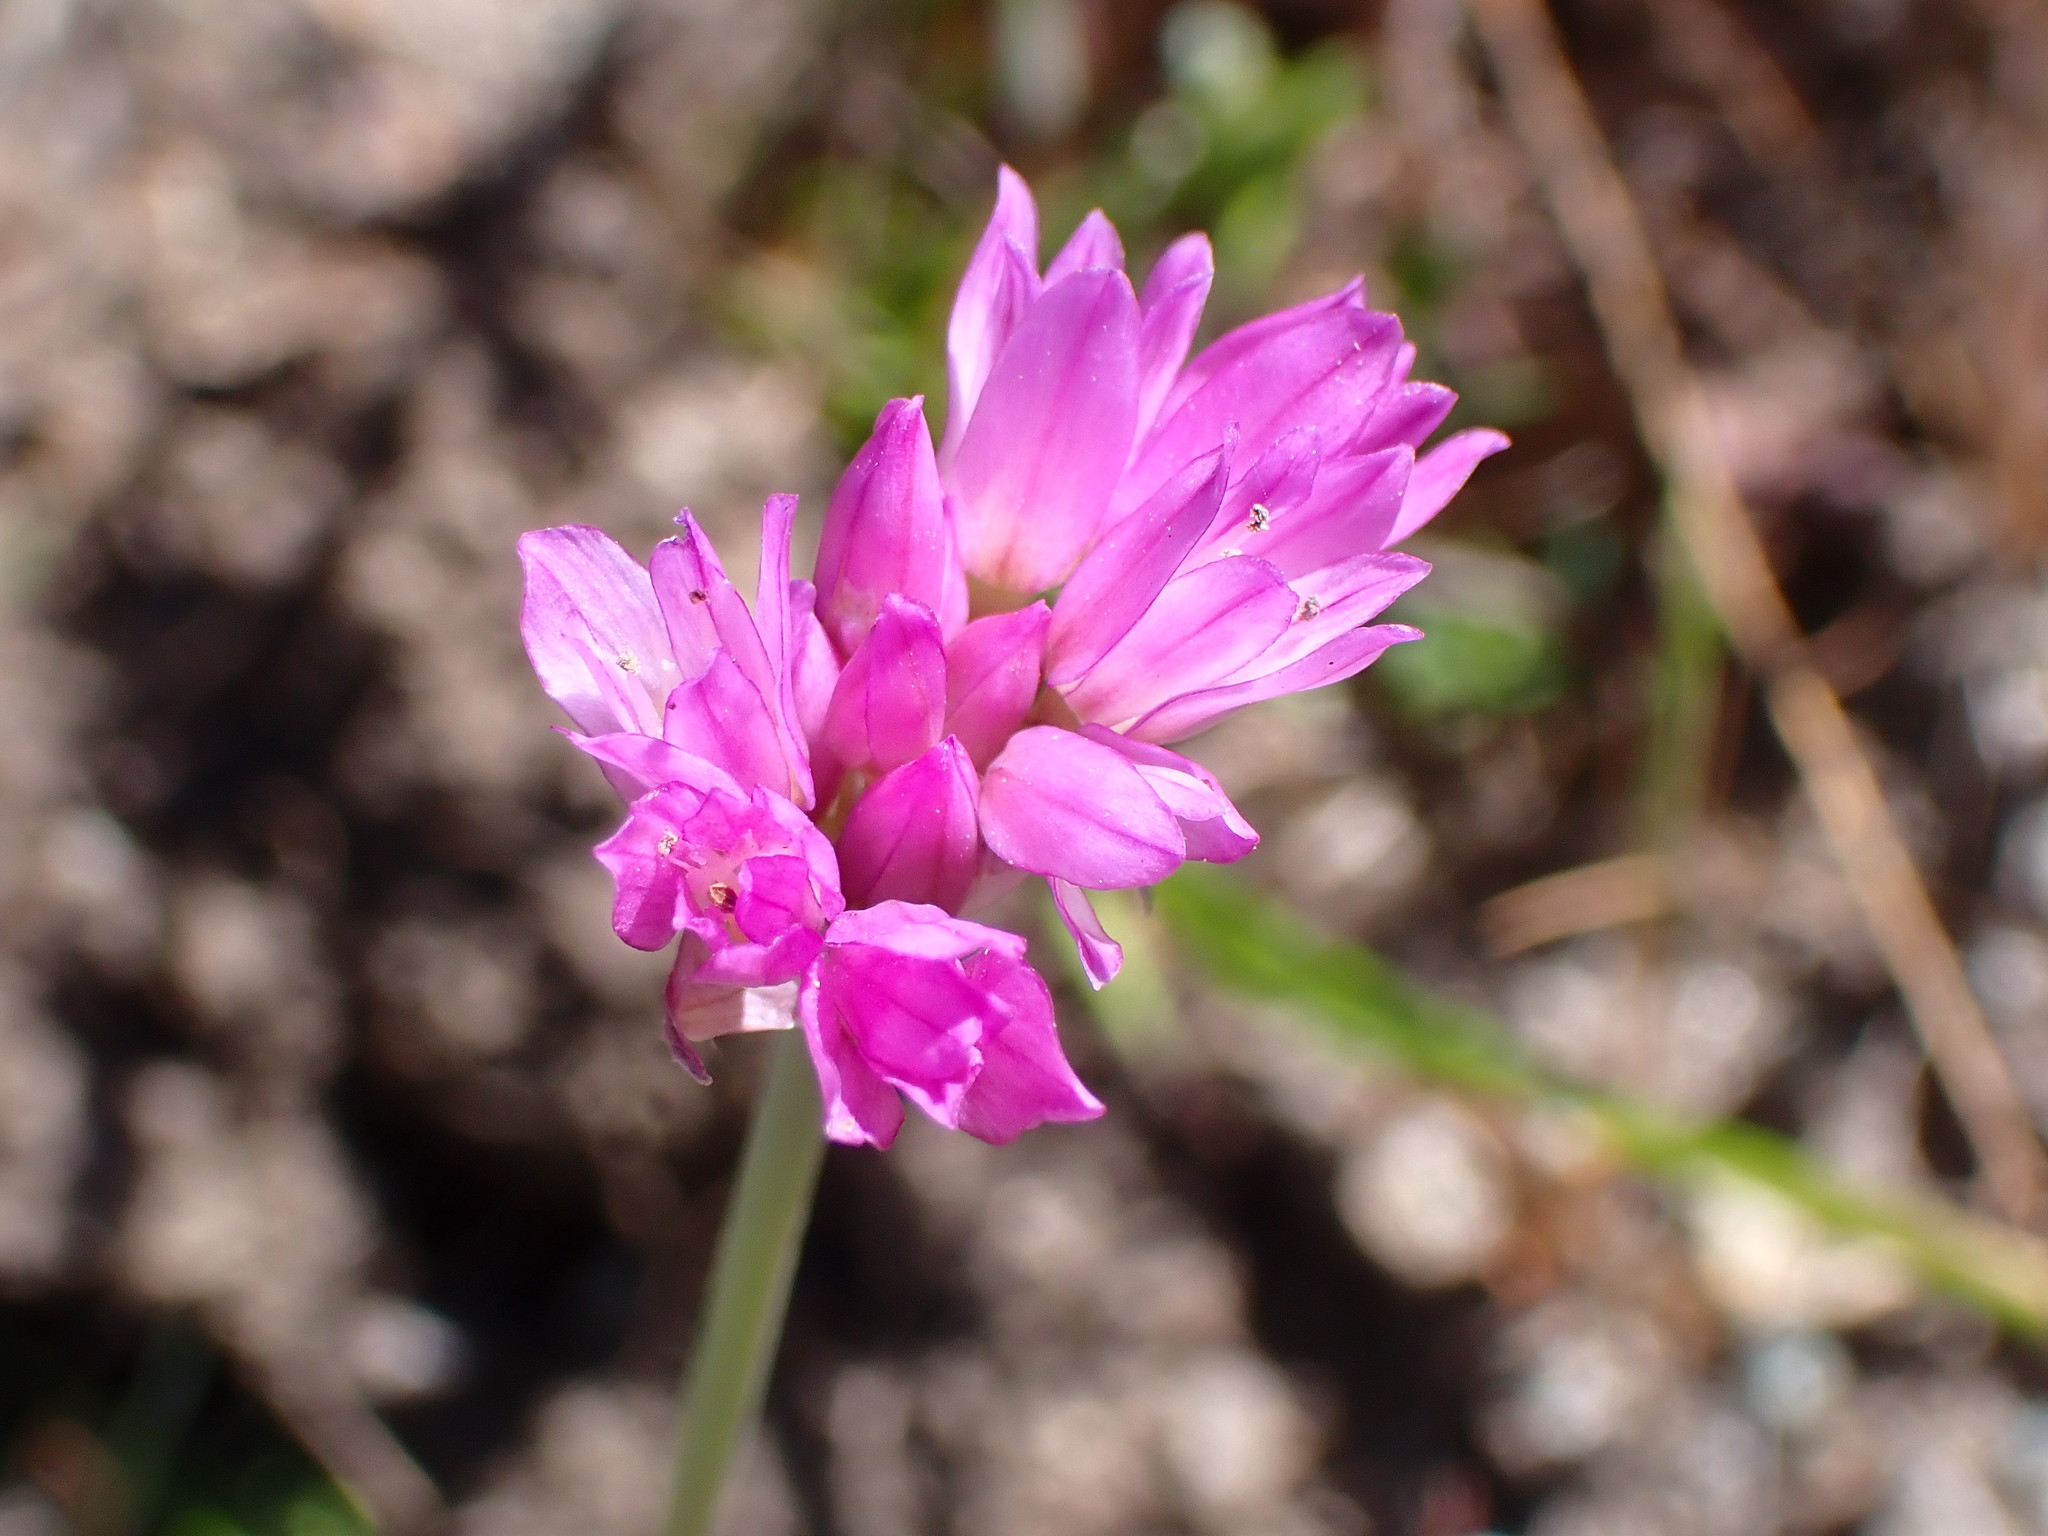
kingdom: Plantae
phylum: Tracheophyta
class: Liliopsida
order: Asparagales
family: Amaryllidaceae
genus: Allium
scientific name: Allium serra
